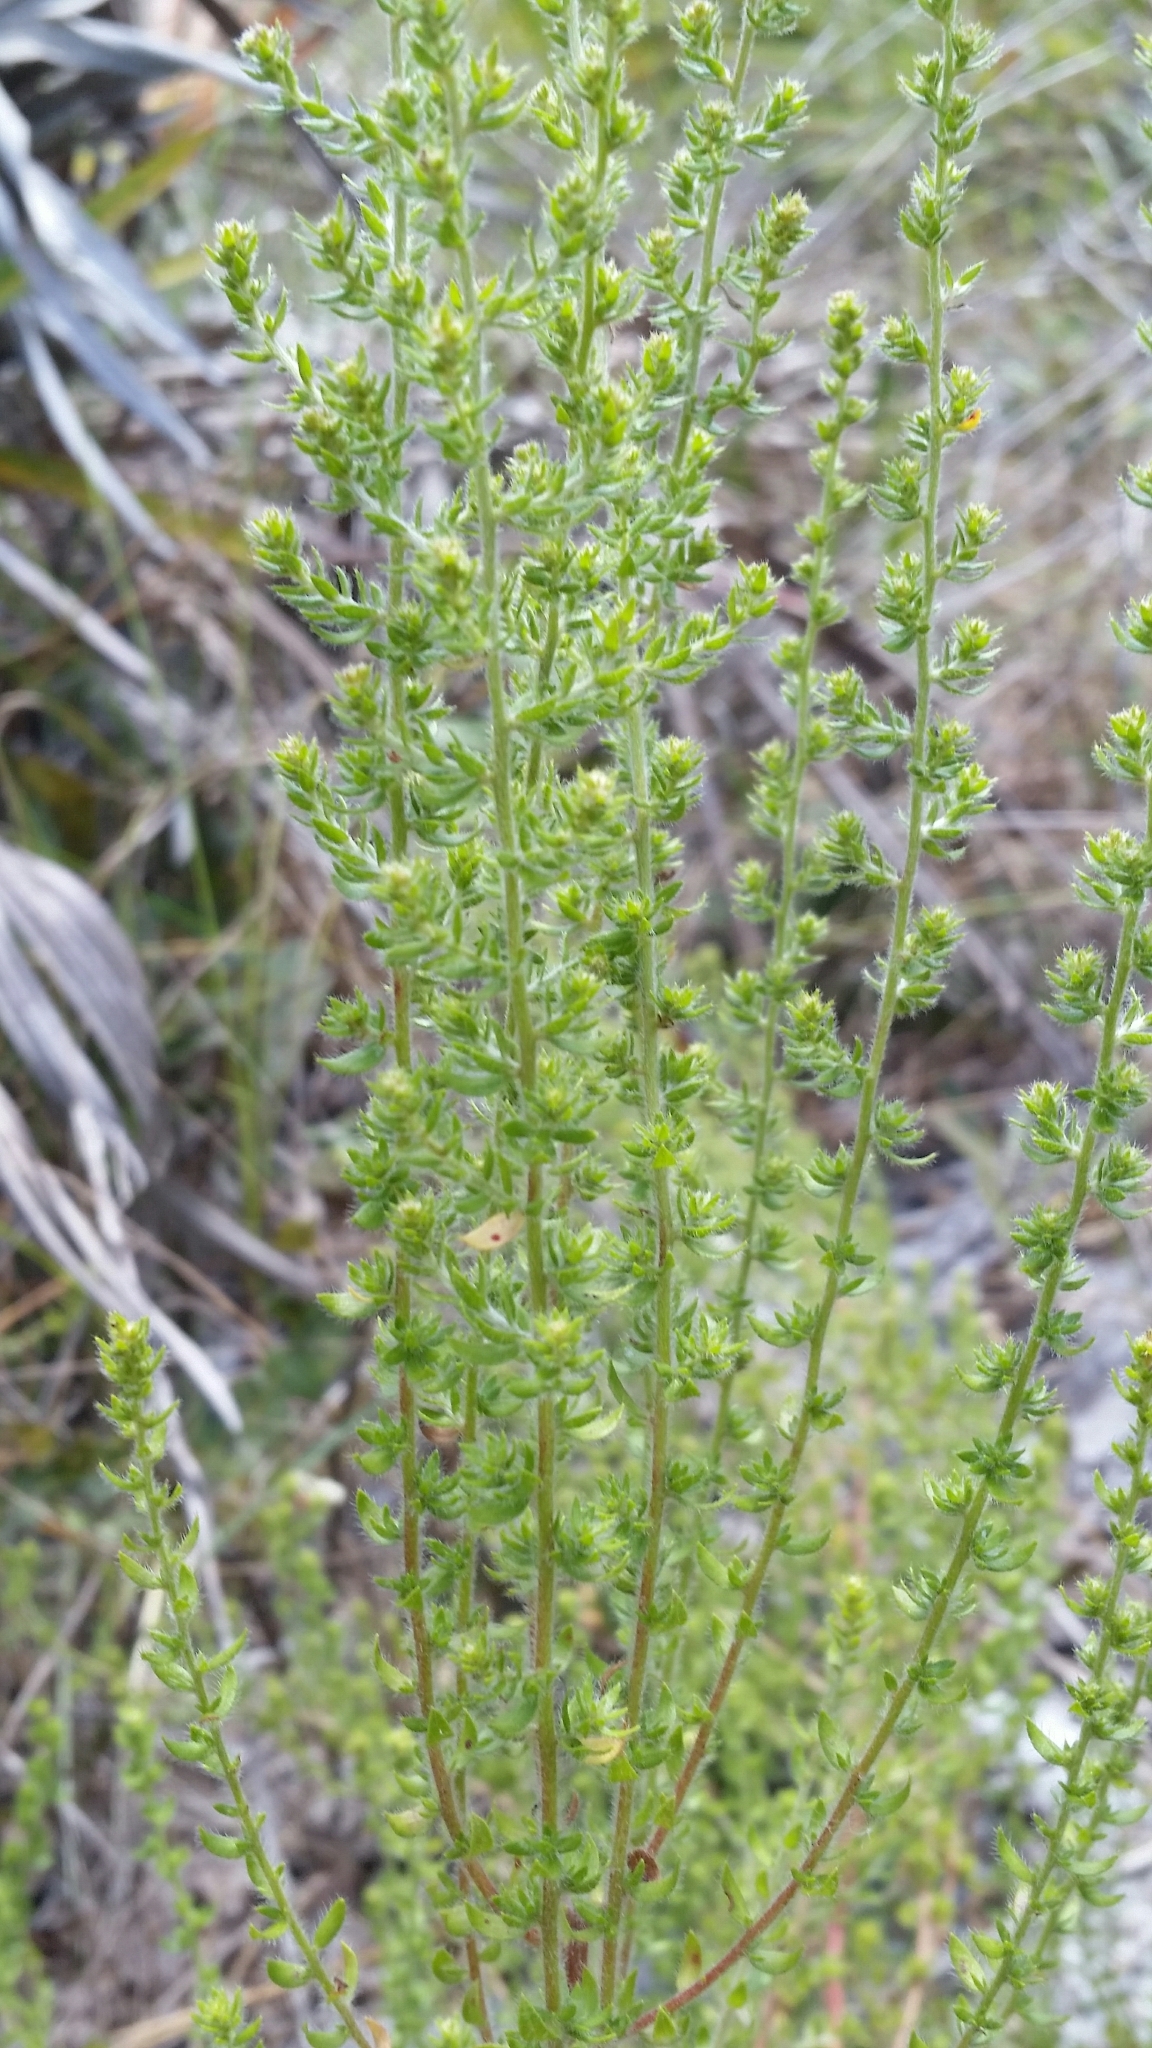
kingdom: Plantae
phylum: Tracheophyta
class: Magnoliopsida
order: Malvales
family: Cistaceae
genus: Lechea
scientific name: Lechea divaricata
